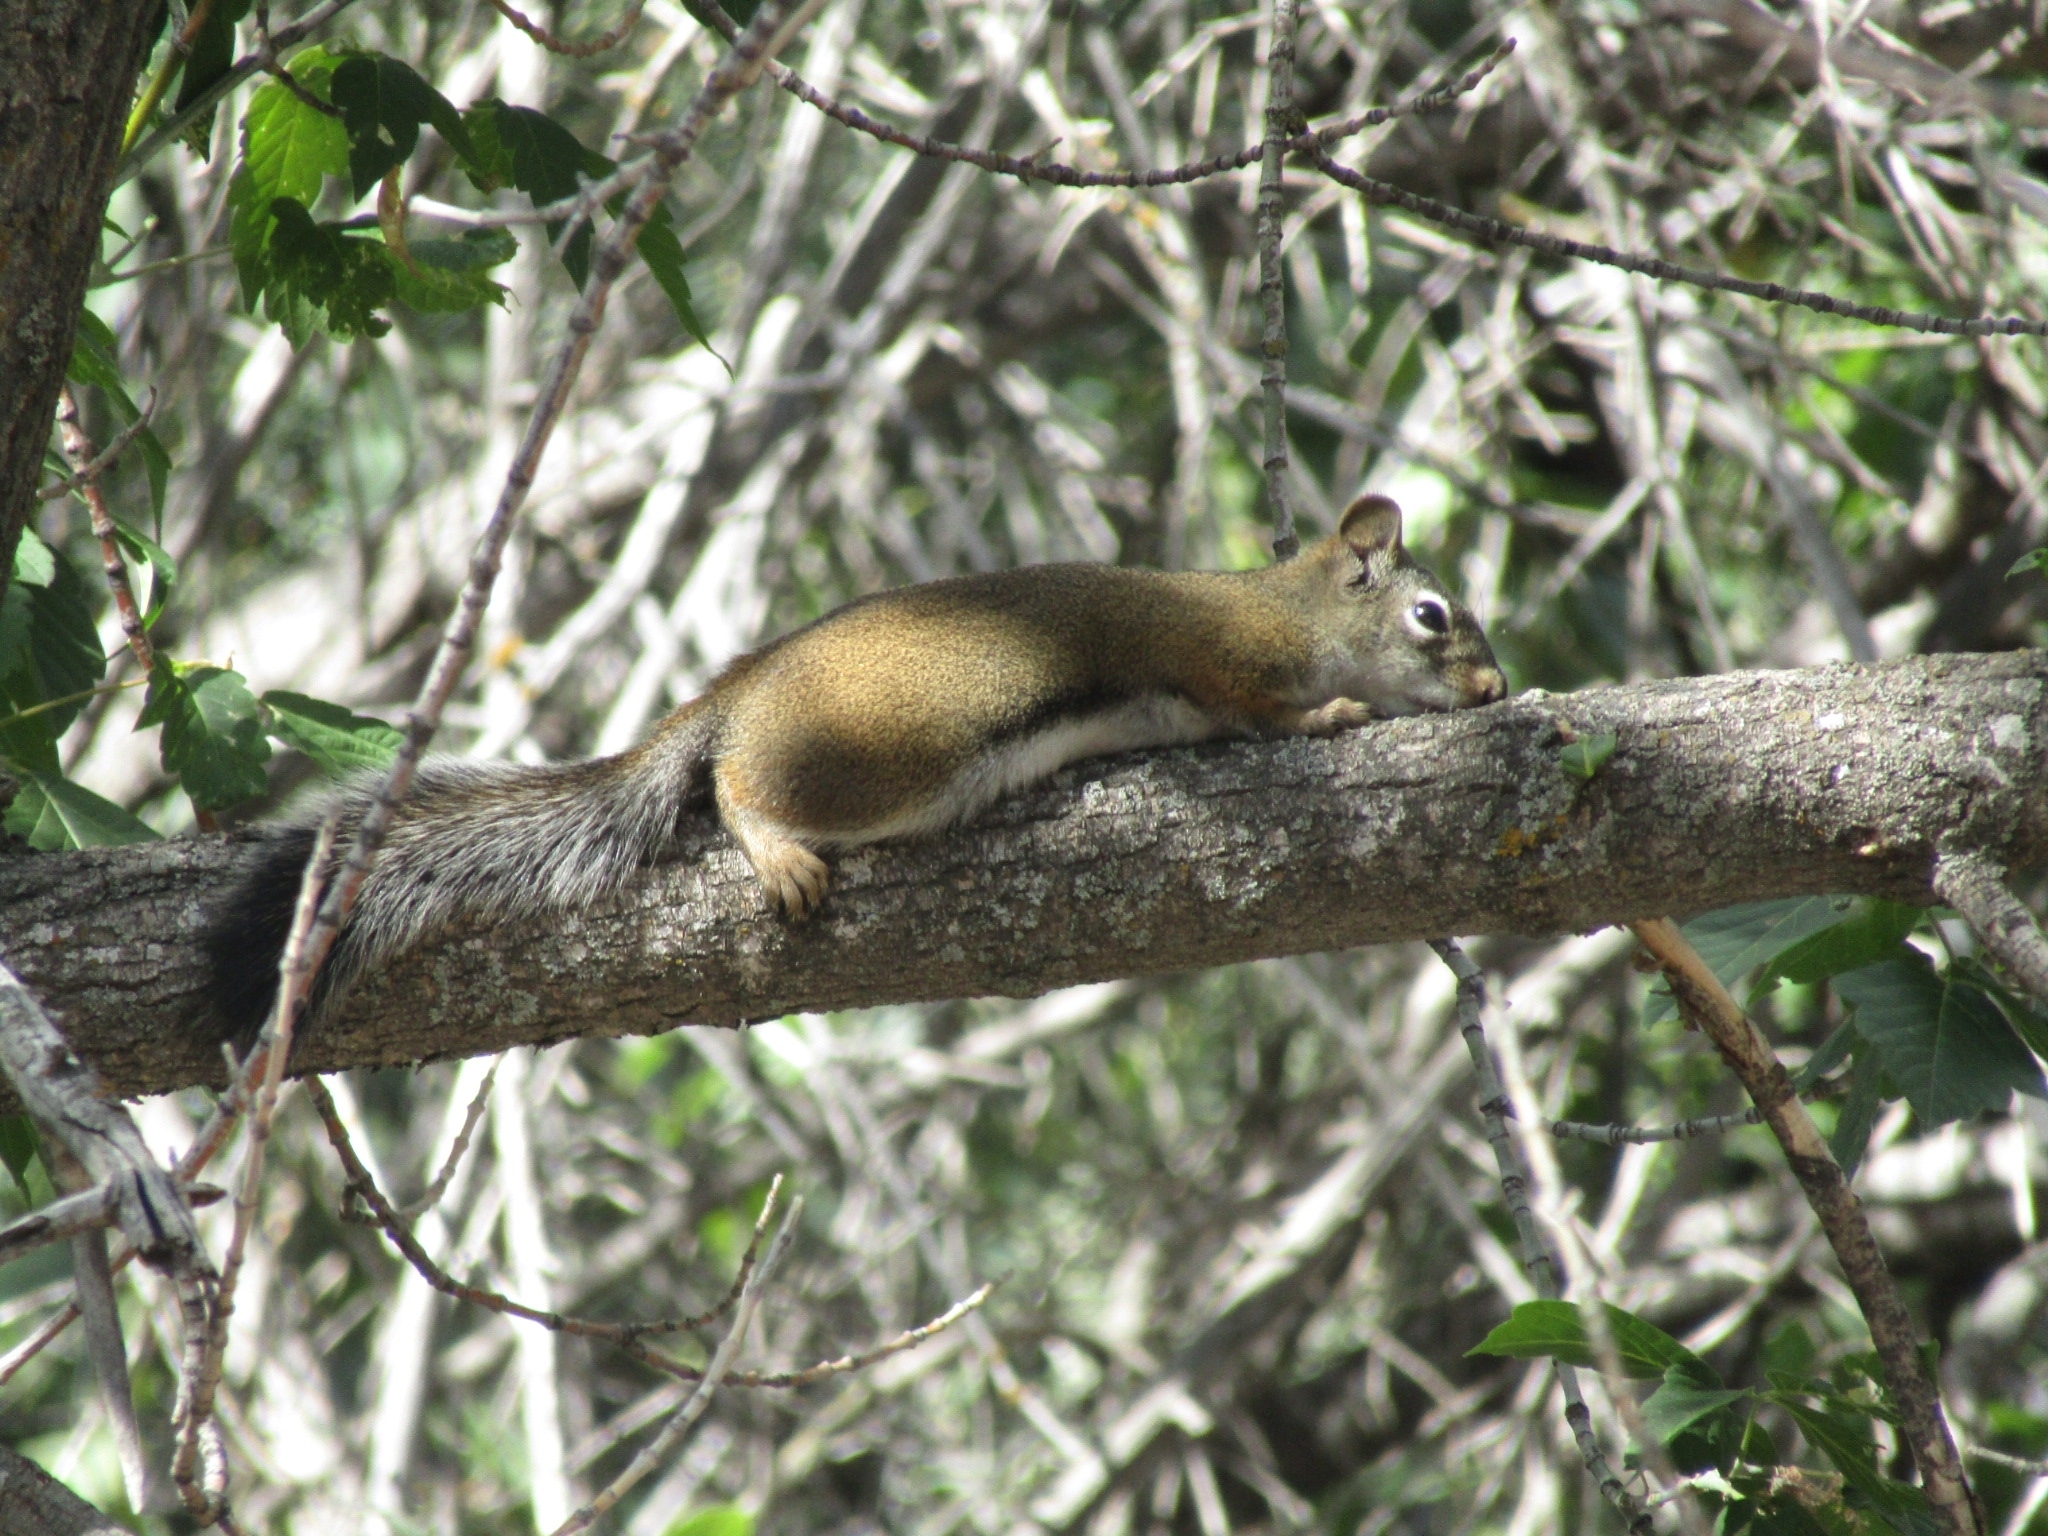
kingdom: Animalia
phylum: Chordata
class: Mammalia
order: Rodentia
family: Sciuridae
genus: Tamiasciurus
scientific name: Tamiasciurus hudsonicus
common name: Red squirrel
